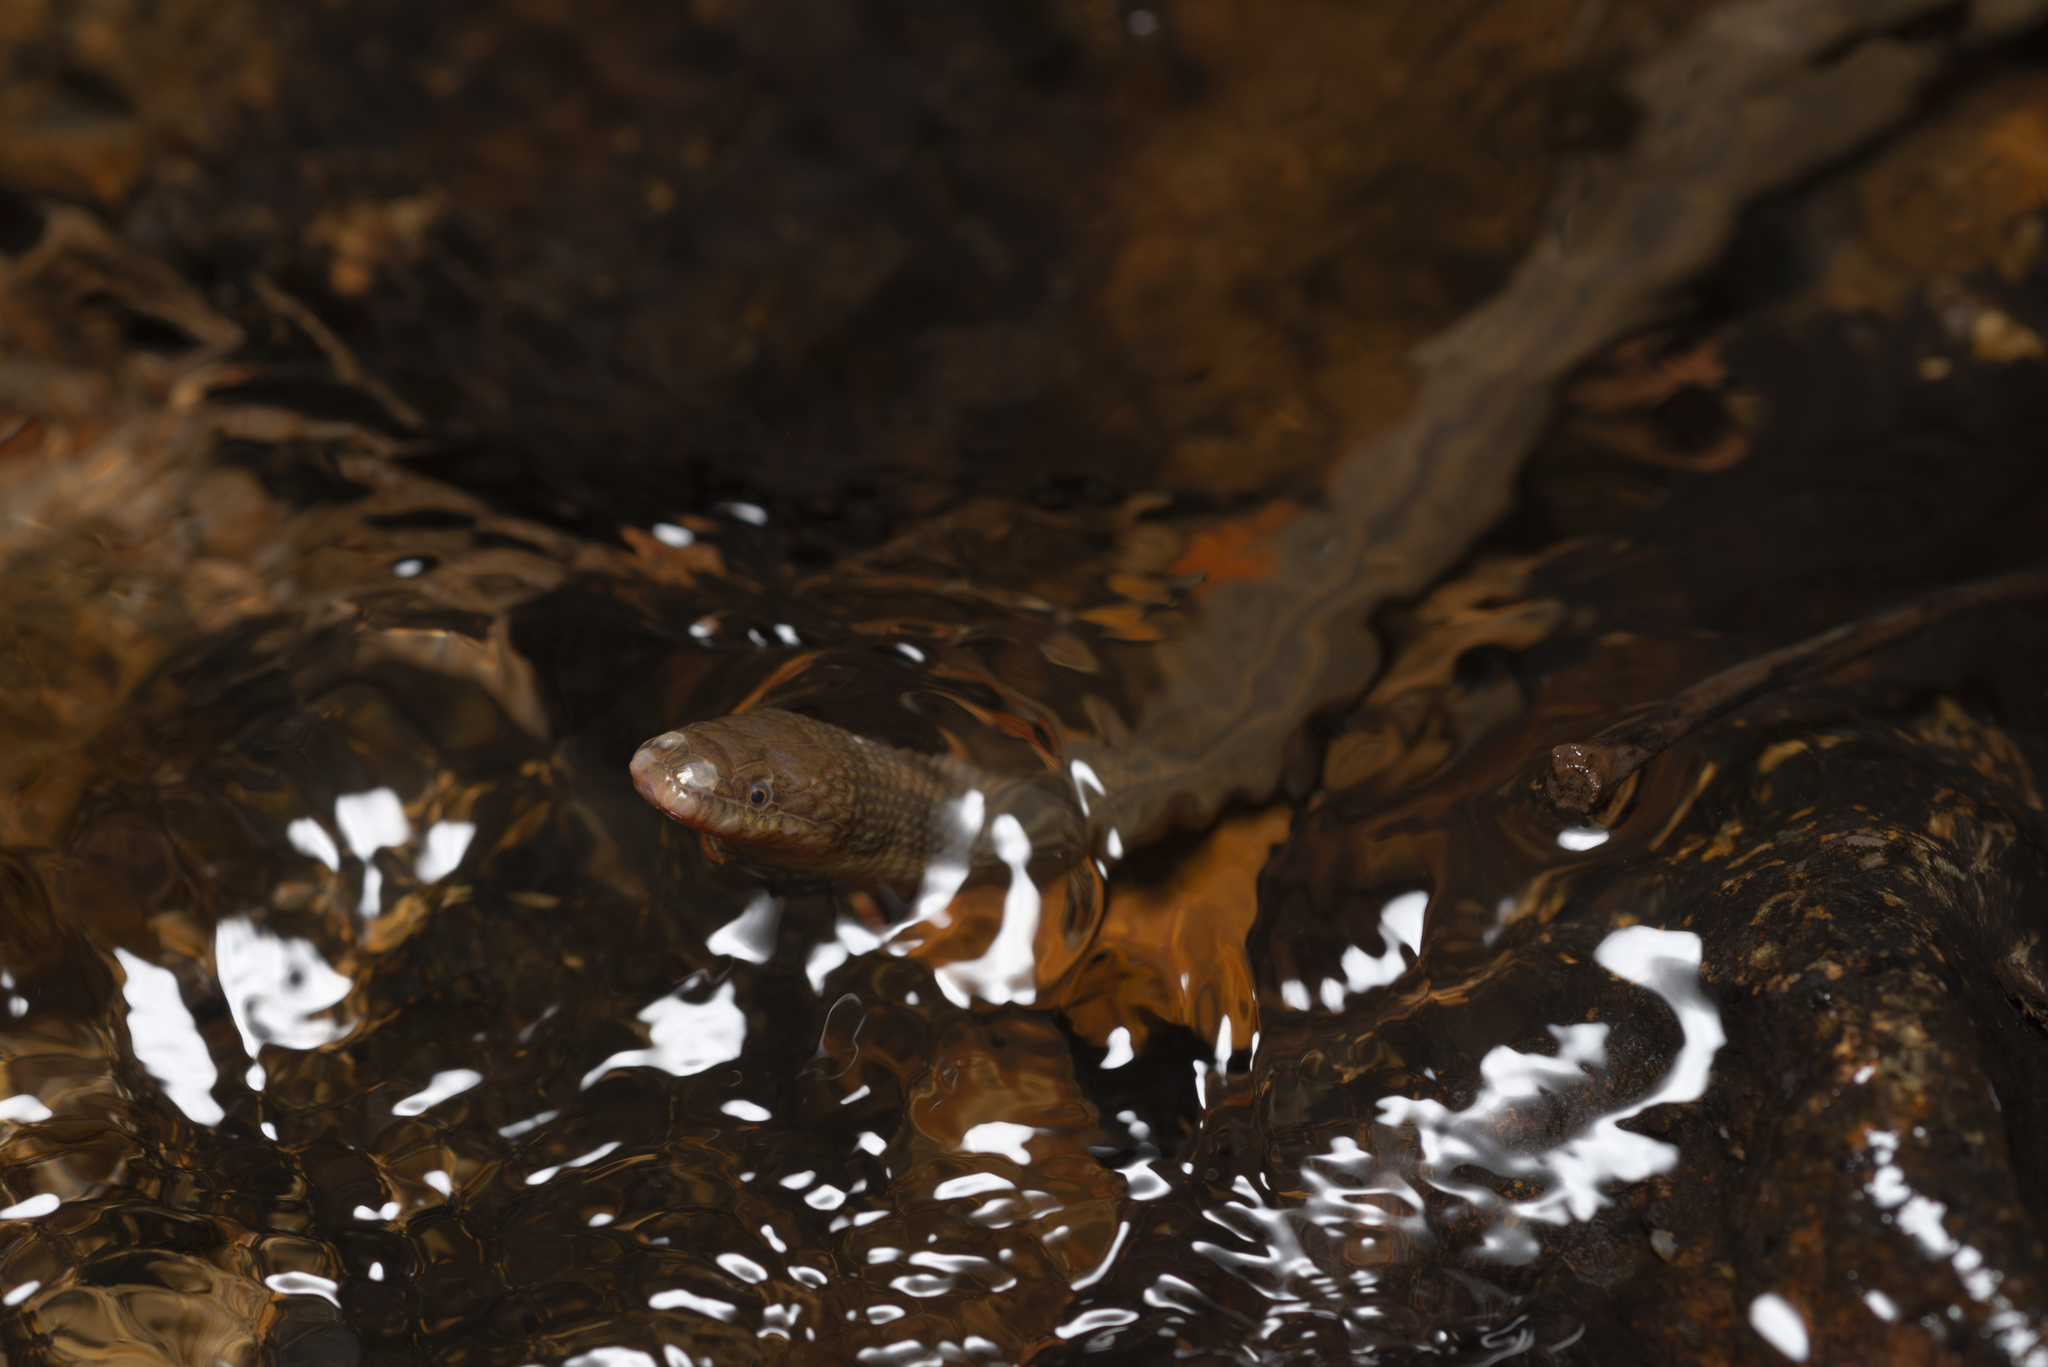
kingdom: Animalia
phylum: Chordata
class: Squamata
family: Colubridae
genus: Opisthotropis
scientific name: Opisthotropis kuatunensis
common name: Chinese mountain keelback
